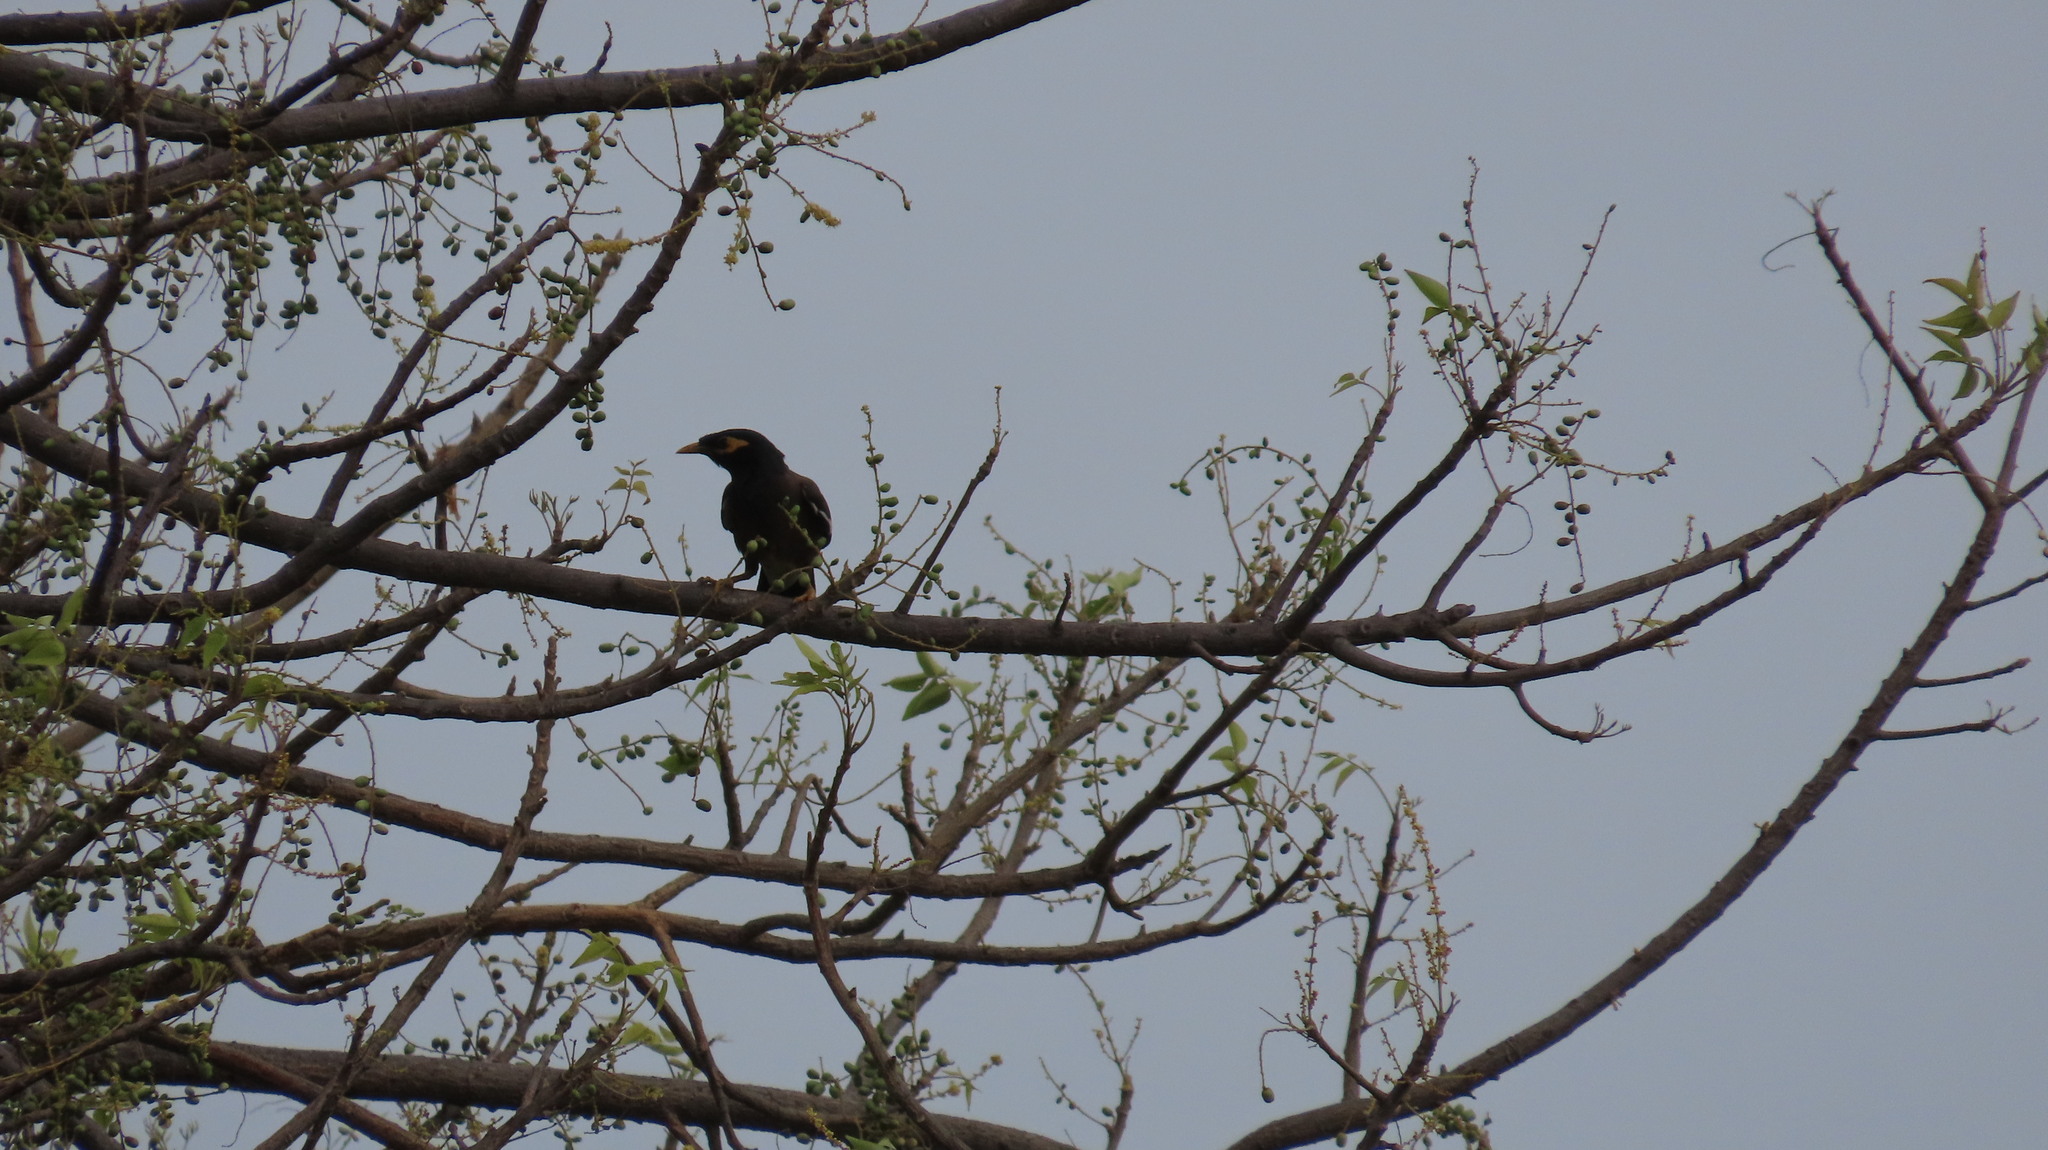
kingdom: Animalia
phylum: Chordata
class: Aves
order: Passeriformes
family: Sturnidae
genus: Acridotheres
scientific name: Acridotheres tristis
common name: Common myna
